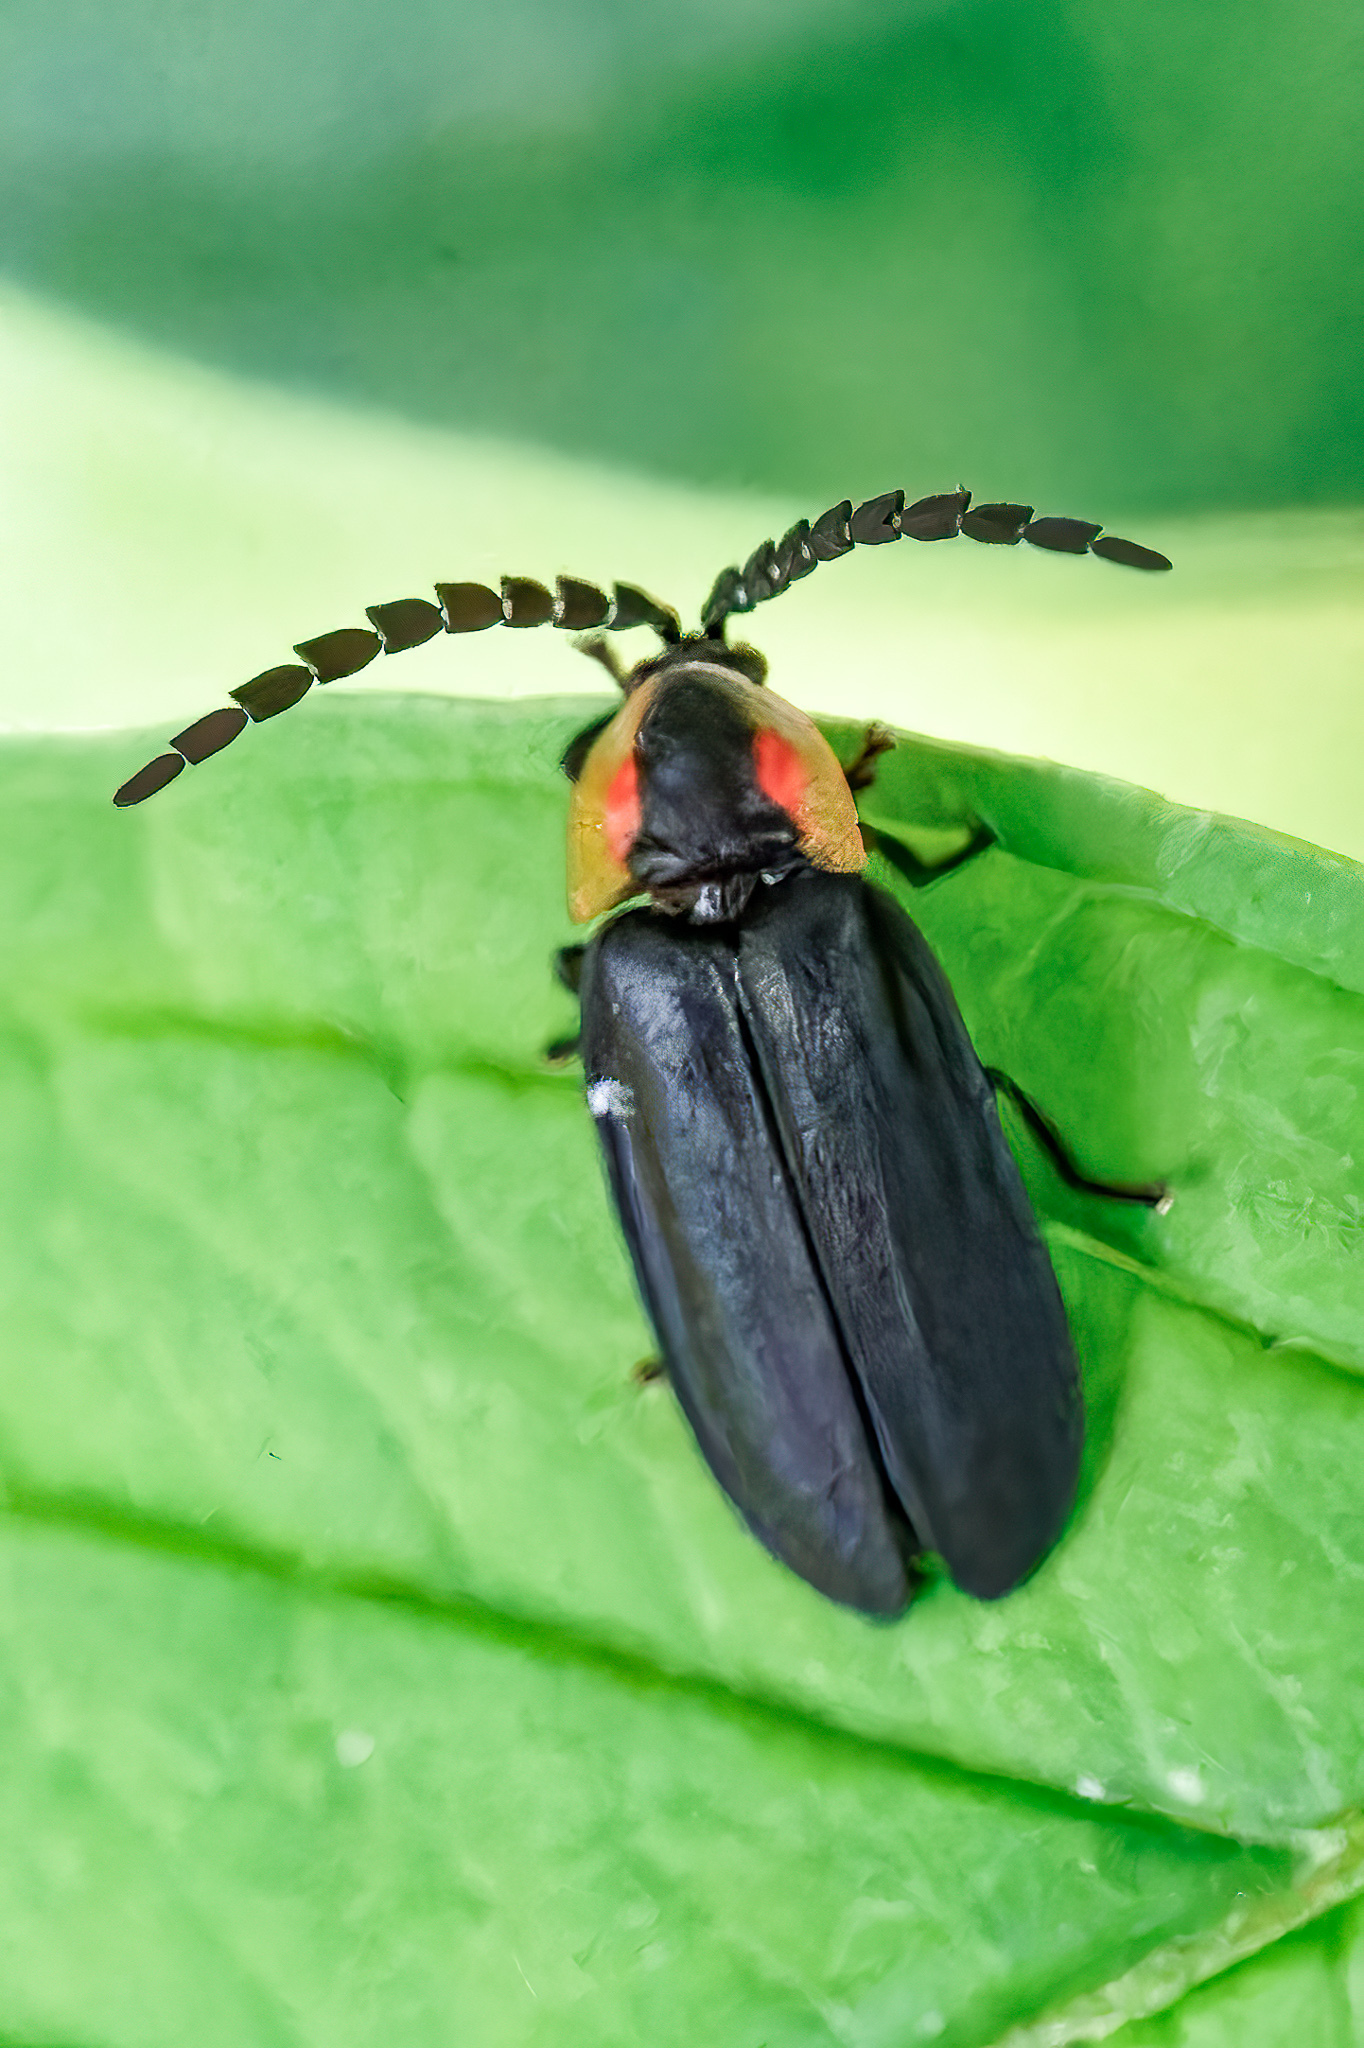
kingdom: Animalia
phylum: Arthropoda
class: Insecta
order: Coleoptera
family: Lampyridae
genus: Lucidota
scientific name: Lucidota atra
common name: Black firefly
